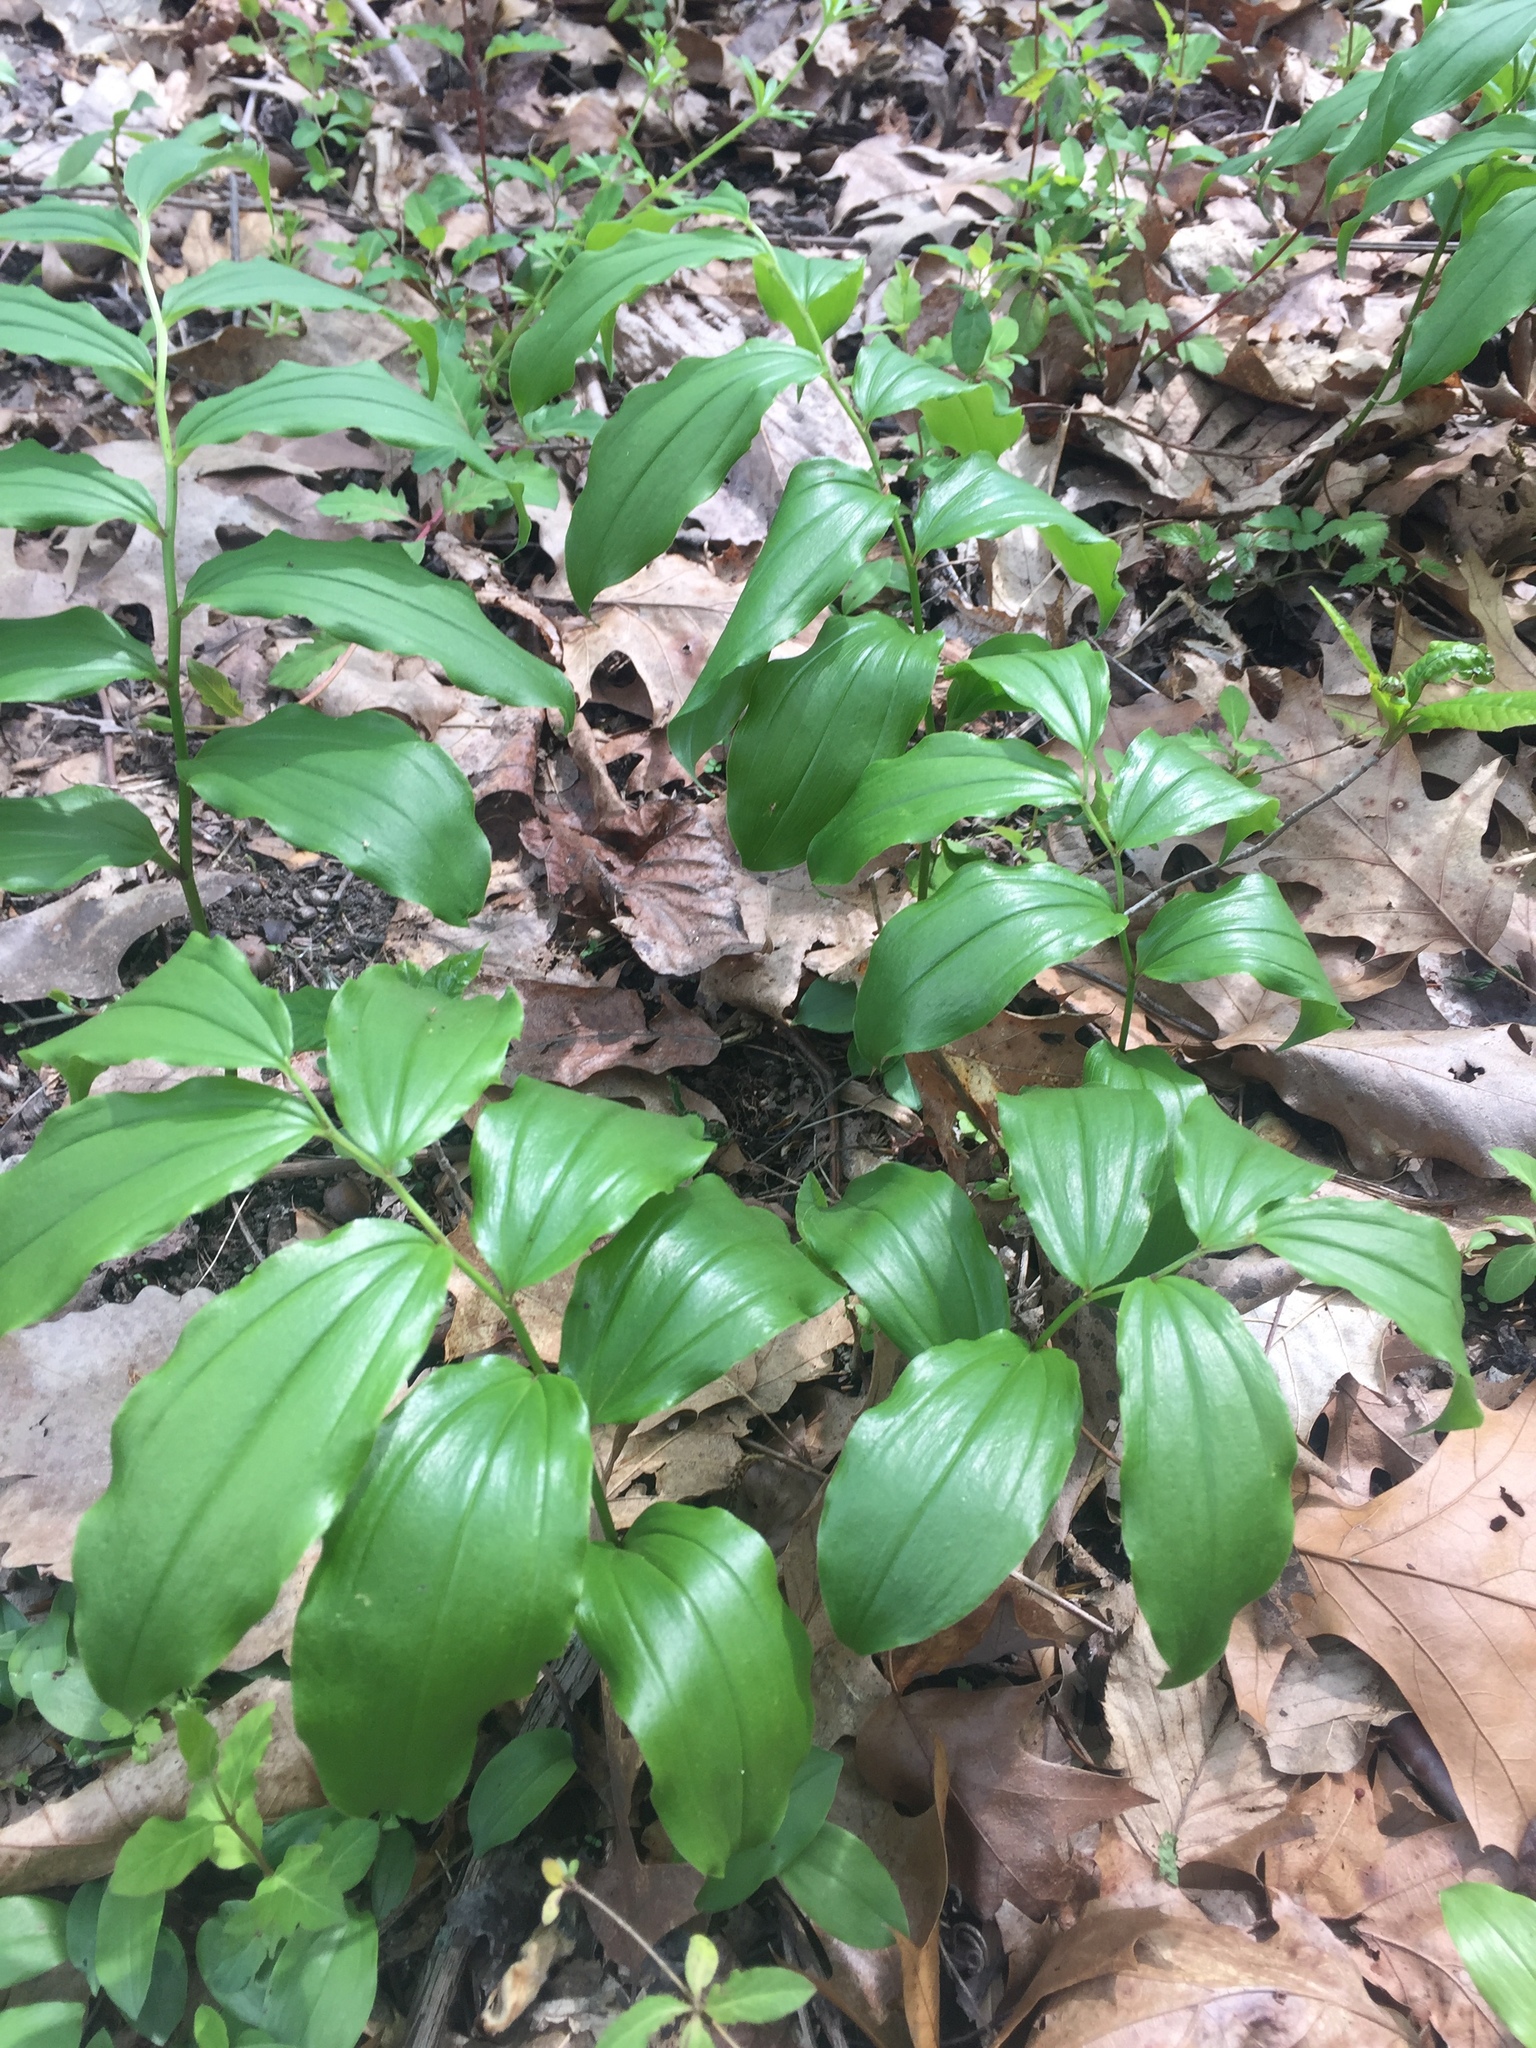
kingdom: Plantae
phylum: Tracheophyta
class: Liliopsida
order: Asparagales
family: Asparagaceae
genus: Maianthemum
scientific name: Maianthemum racemosum
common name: False spikenard
